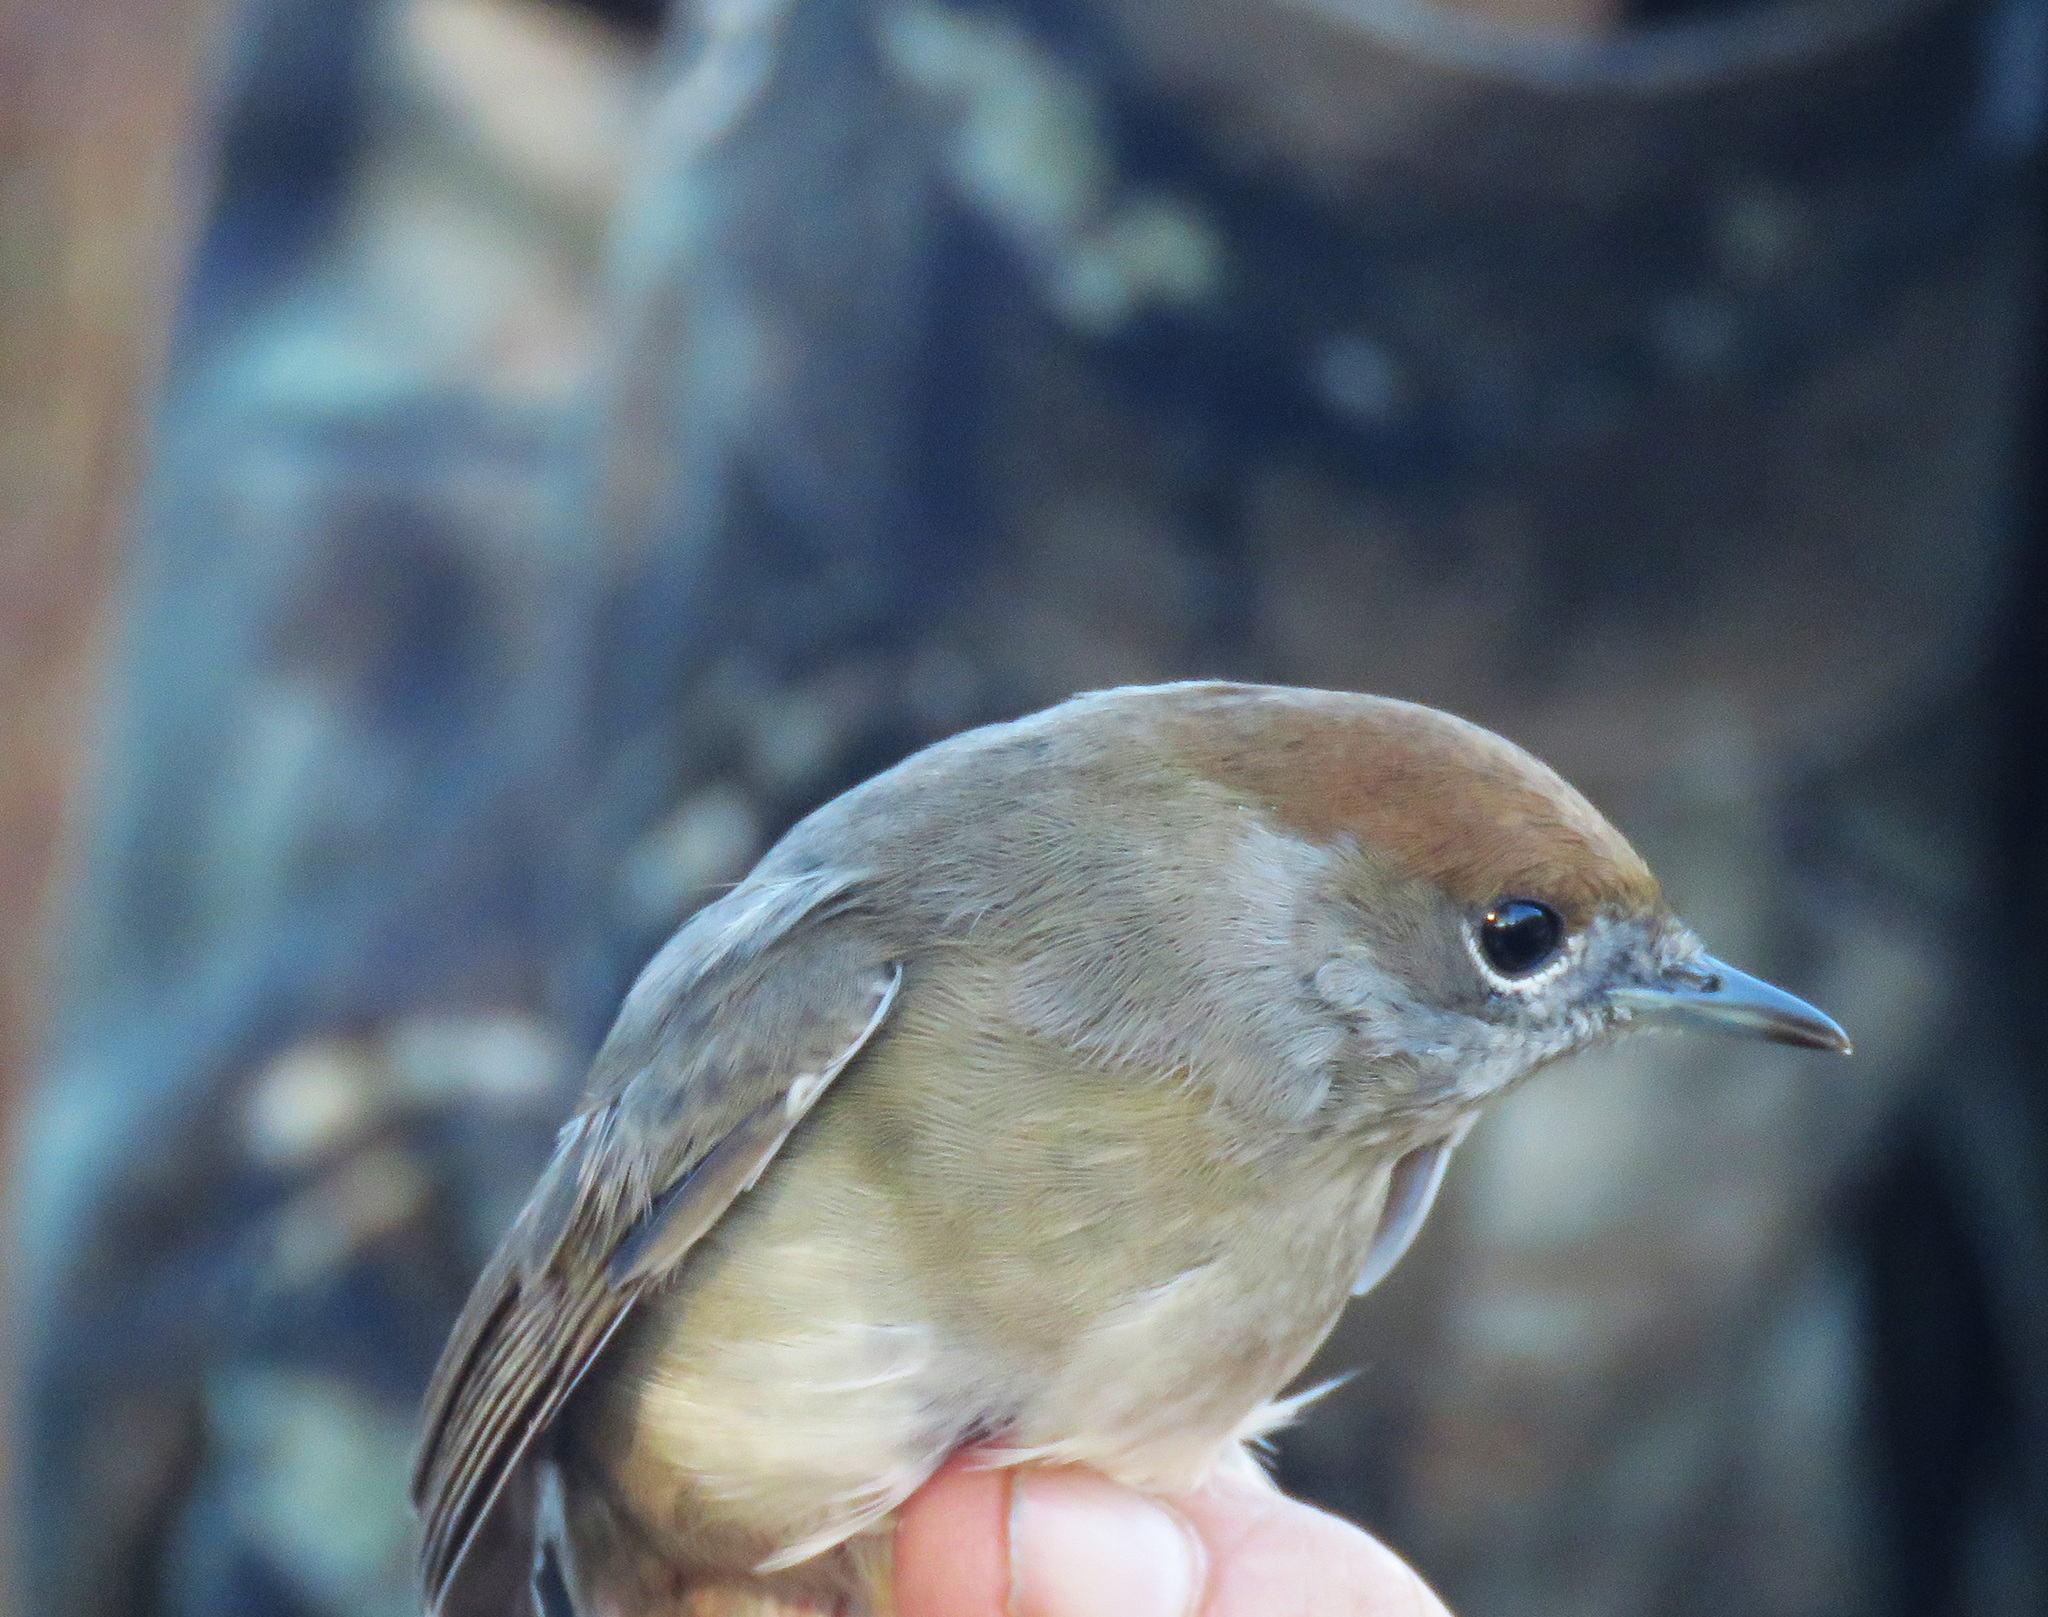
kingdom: Animalia
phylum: Chordata
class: Aves
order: Passeriformes
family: Sylviidae
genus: Sylvia
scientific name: Sylvia atricapilla
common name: Eurasian blackcap
